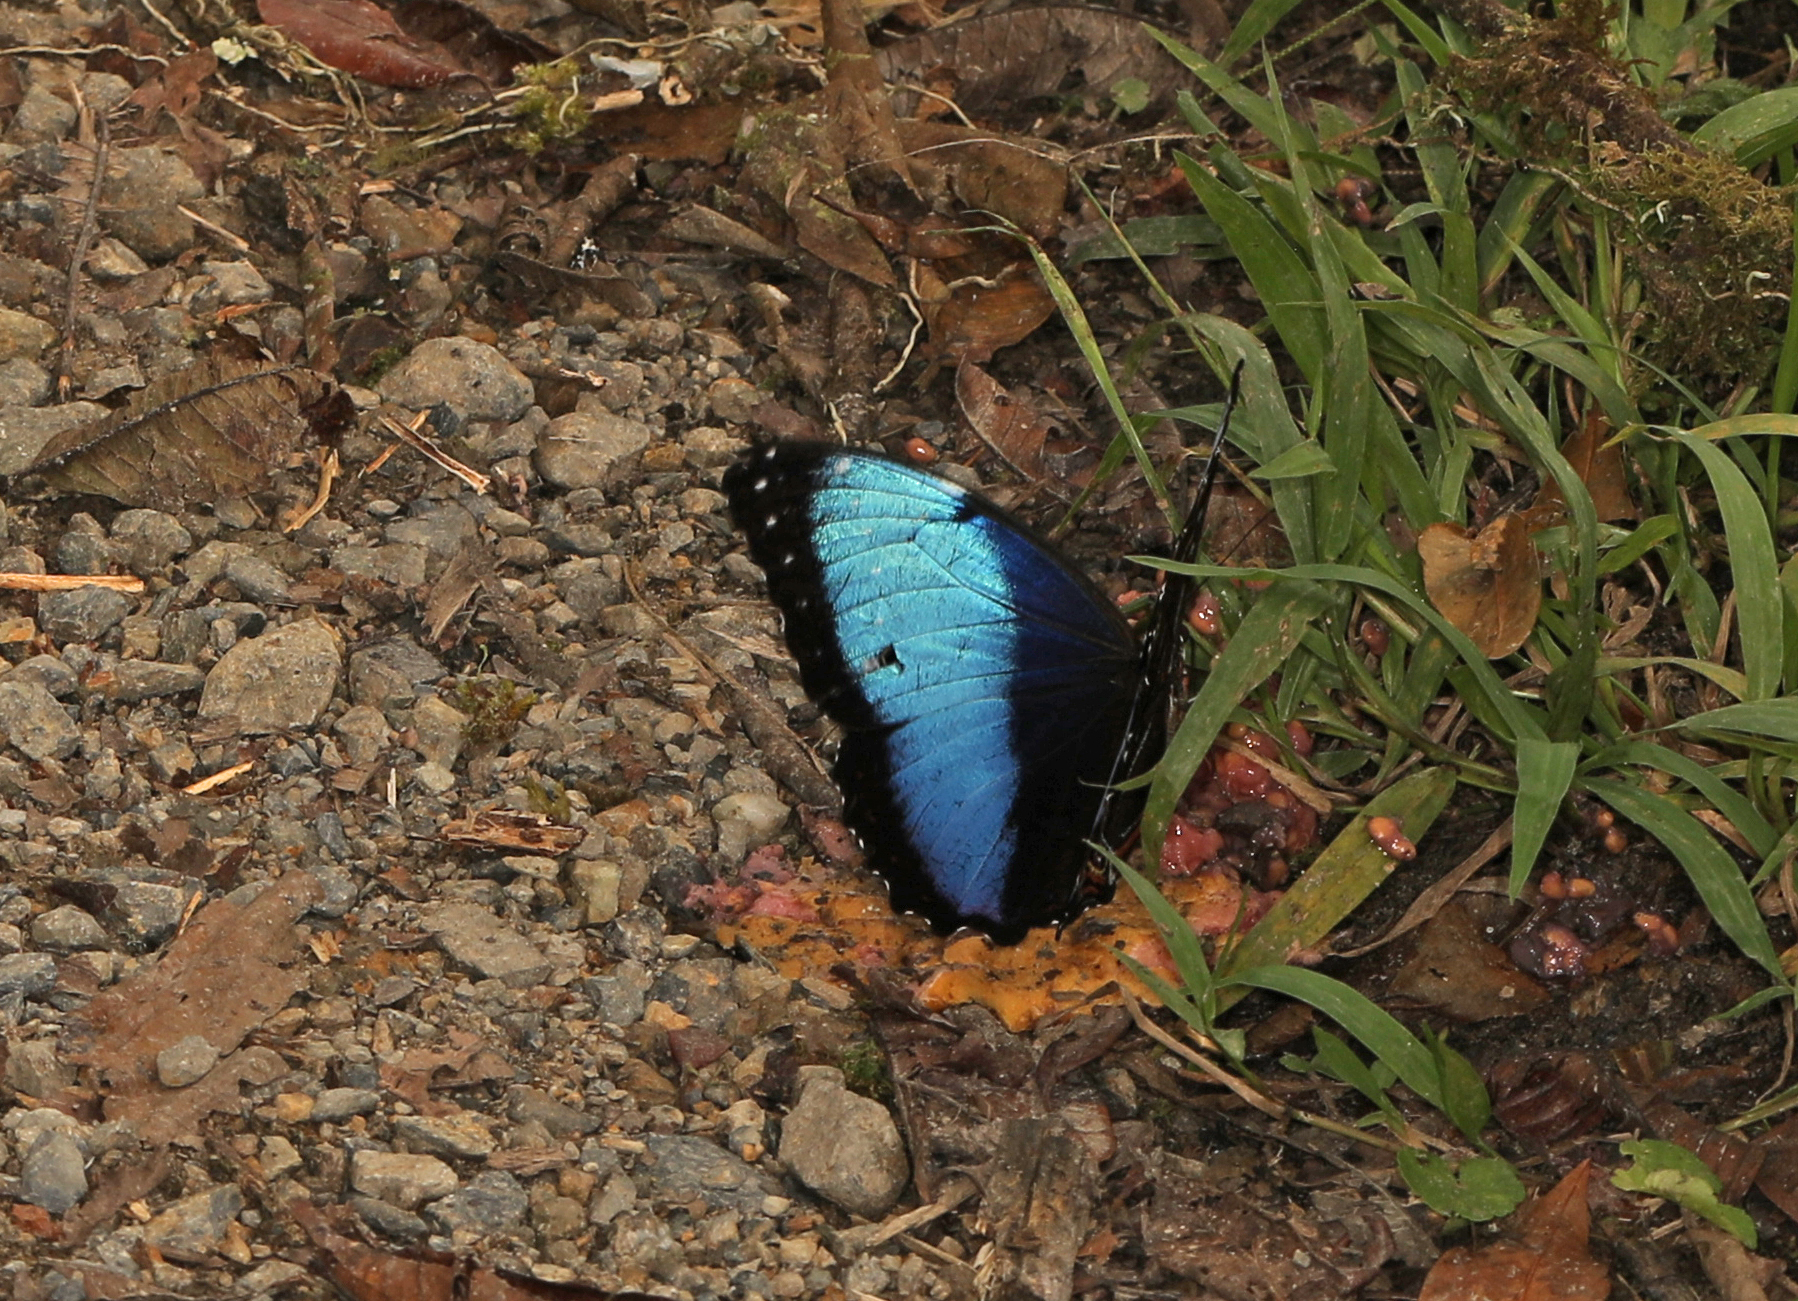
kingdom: Animalia
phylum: Arthropoda
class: Insecta
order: Lepidoptera
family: Nymphalidae
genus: Morpho
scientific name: Morpho helenor
